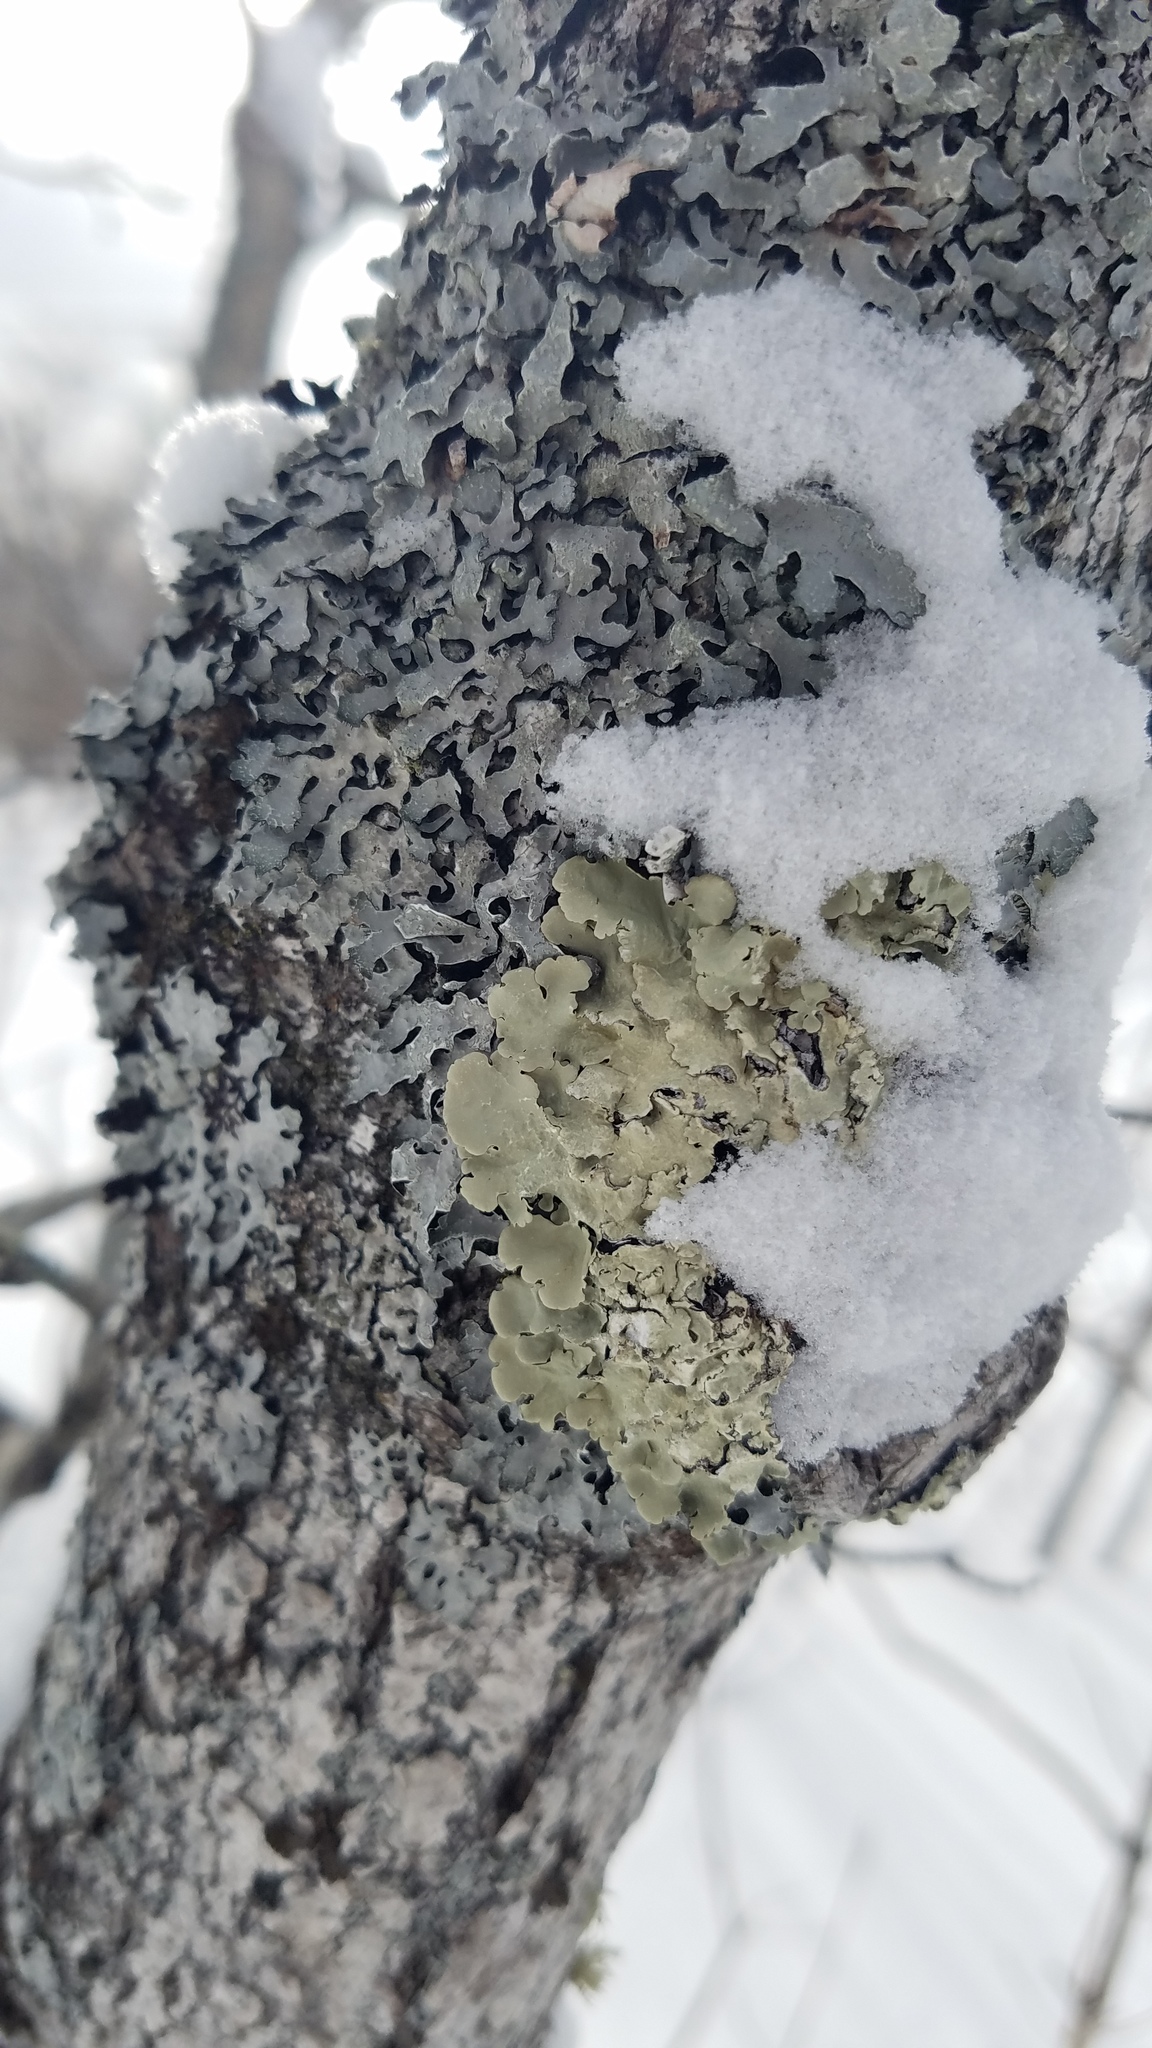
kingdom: Fungi
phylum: Ascomycota
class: Lecanoromycetes
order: Lecanorales
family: Parmeliaceae
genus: Flavoparmelia
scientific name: Flavoparmelia caperata
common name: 40-mile per hour lichen
